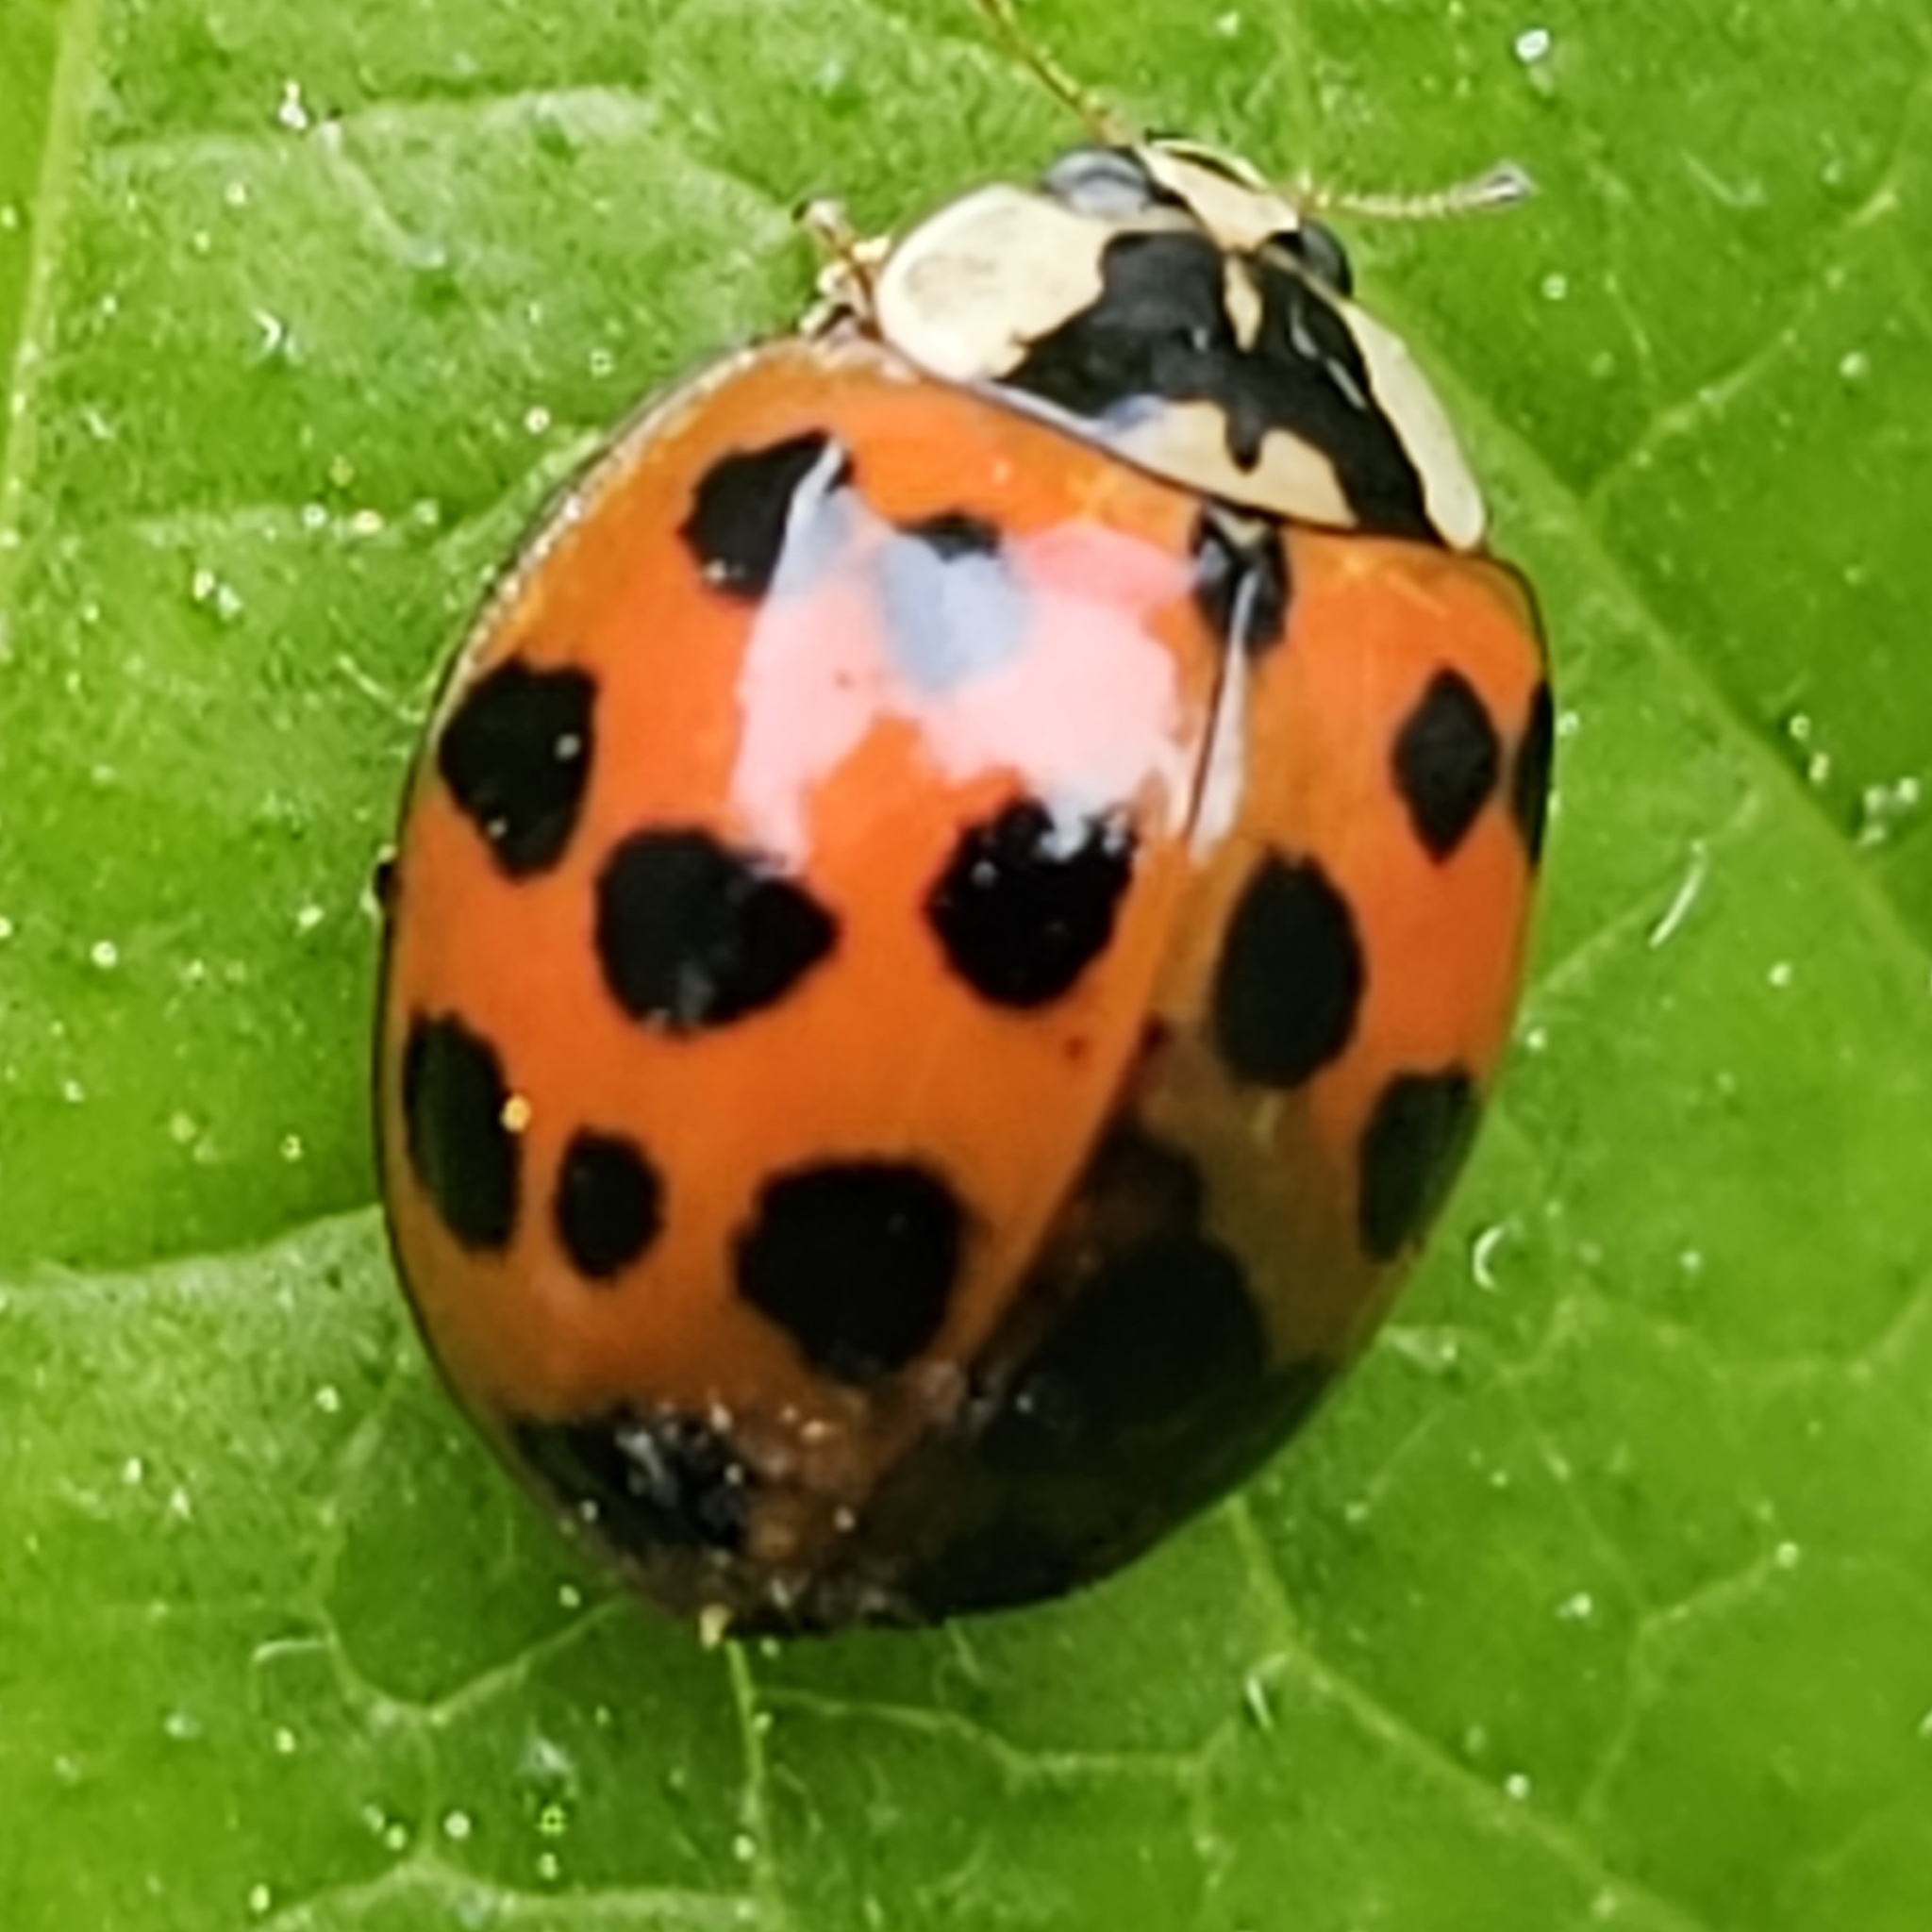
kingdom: Animalia
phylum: Arthropoda
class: Insecta
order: Coleoptera
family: Coccinellidae
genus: Harmonia
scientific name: Harmonia axyridis
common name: Harlequin ladybird
